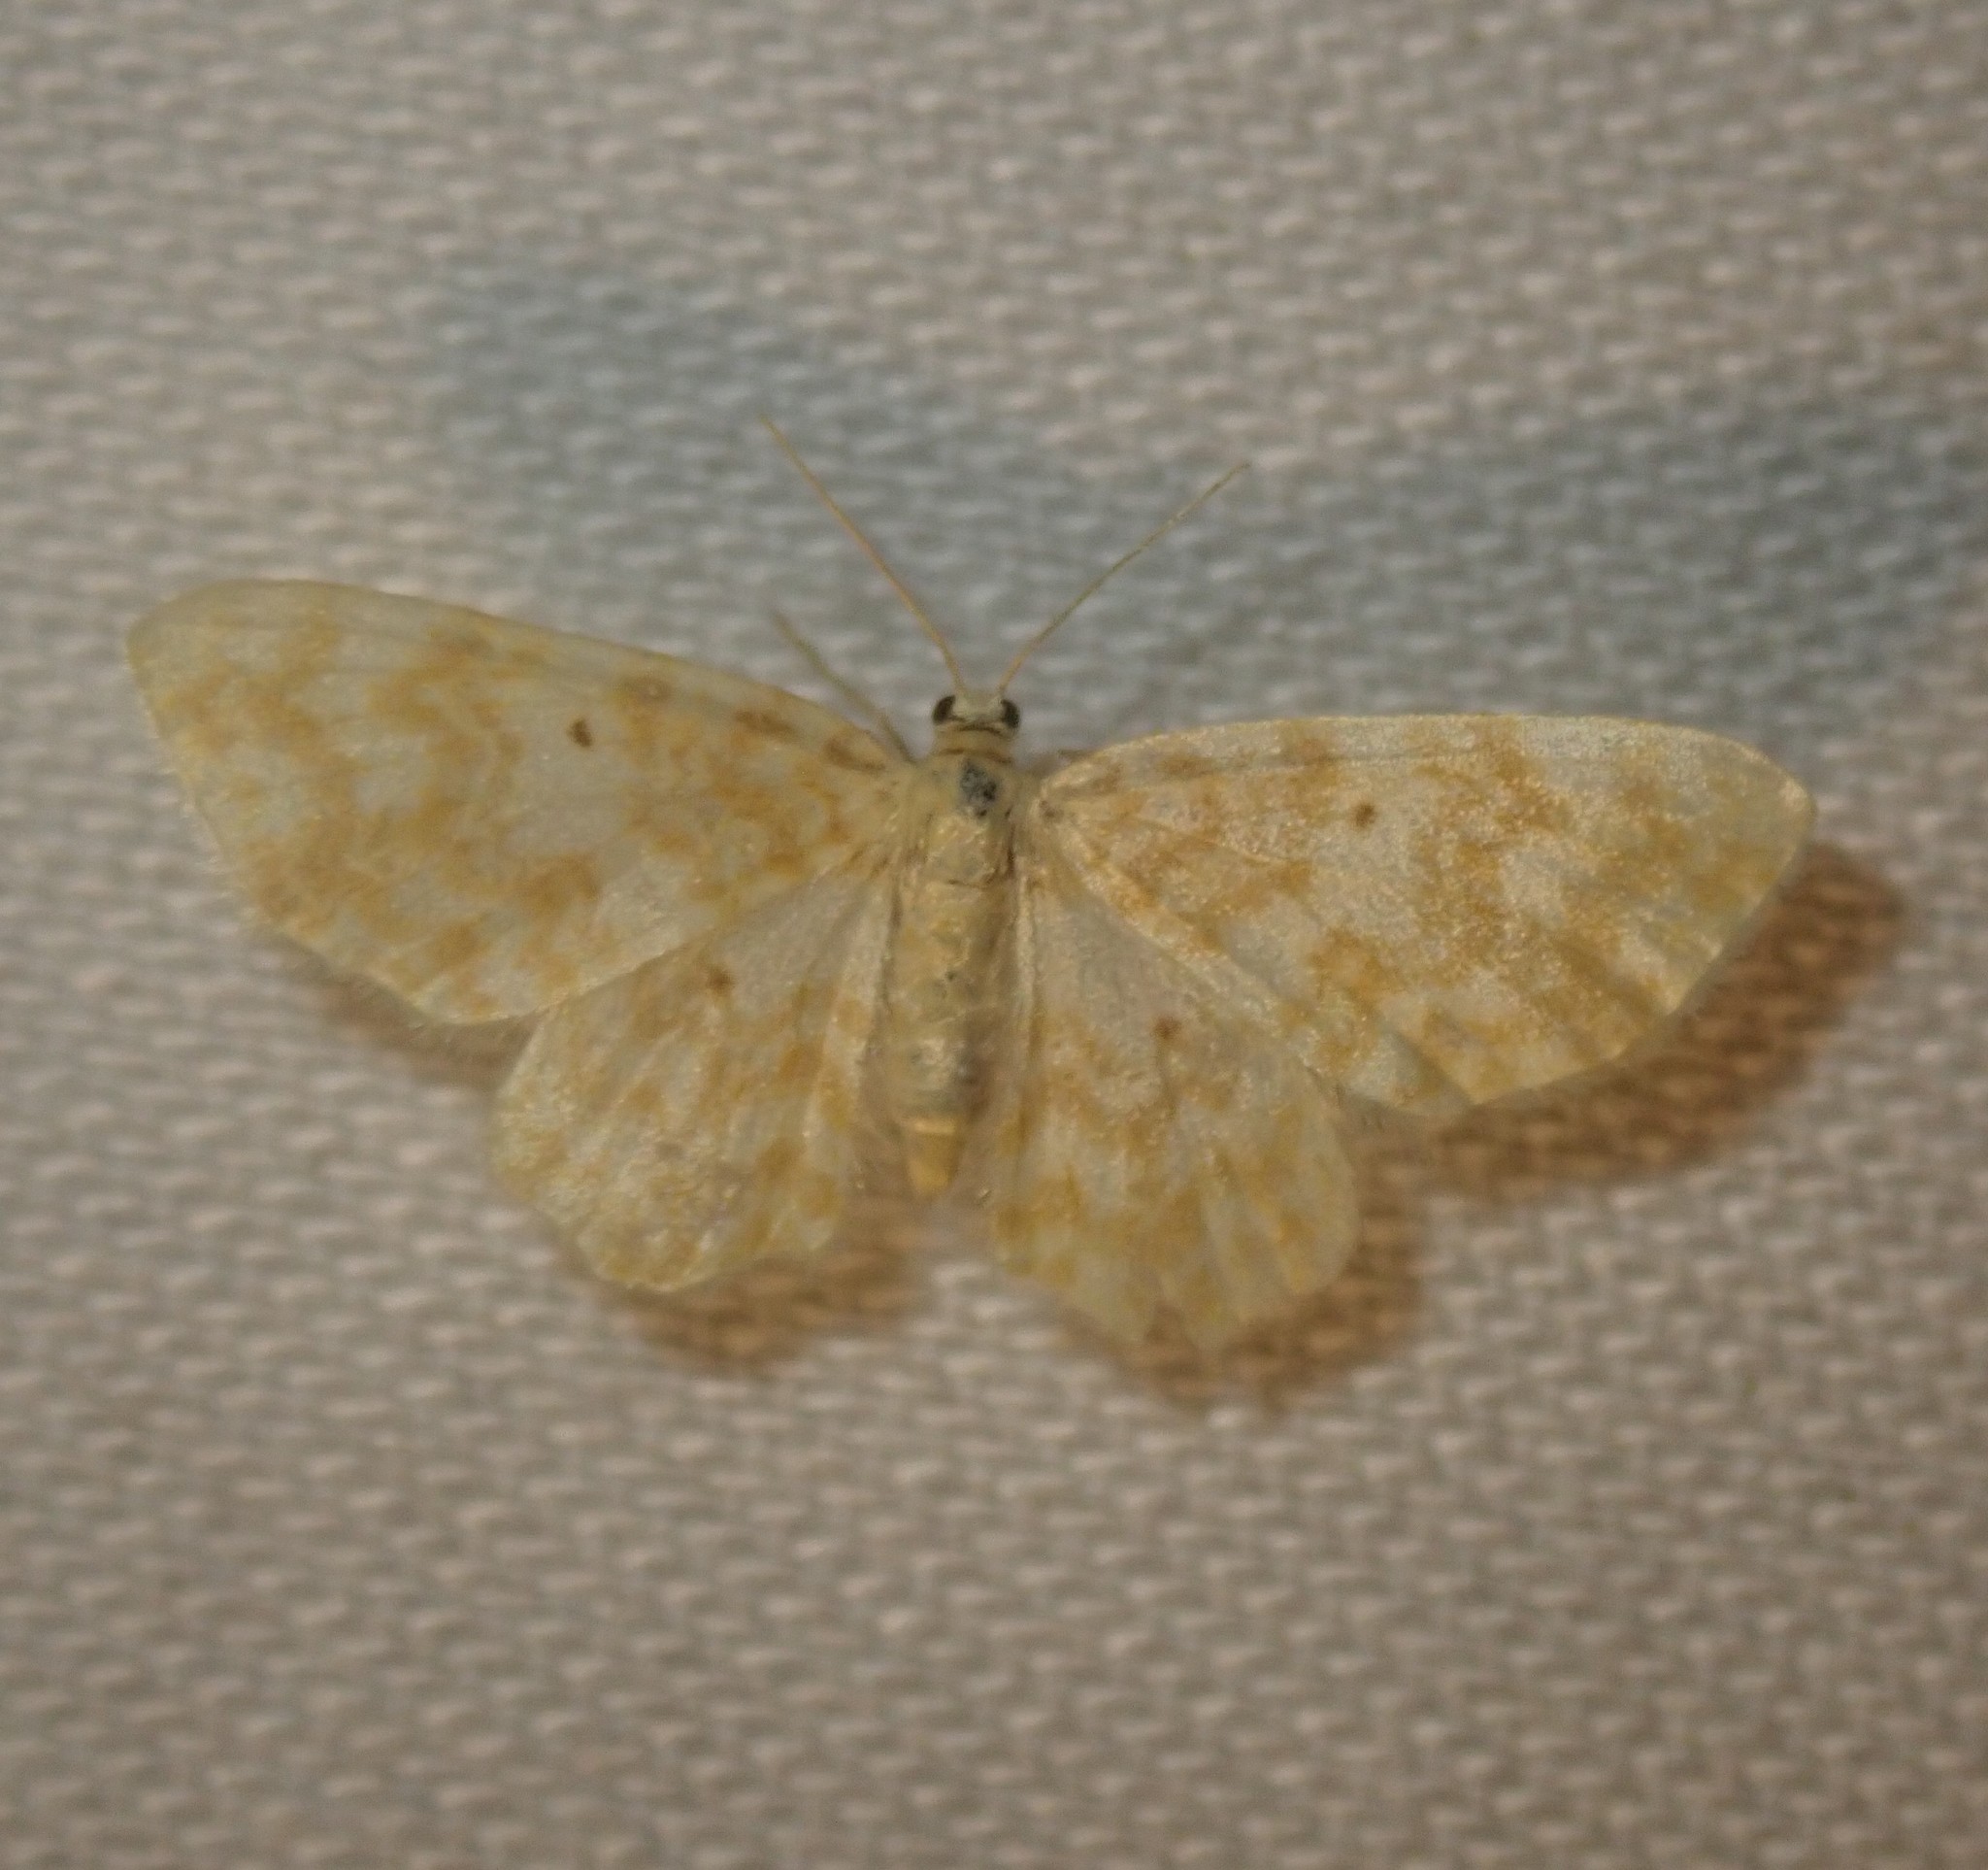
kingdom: Animalia
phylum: Arthropoda
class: Insecta
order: Lepidoptera
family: Geometridae
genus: Hydrelia
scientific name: Hydrelia flammeolaria
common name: Small yellow wave
